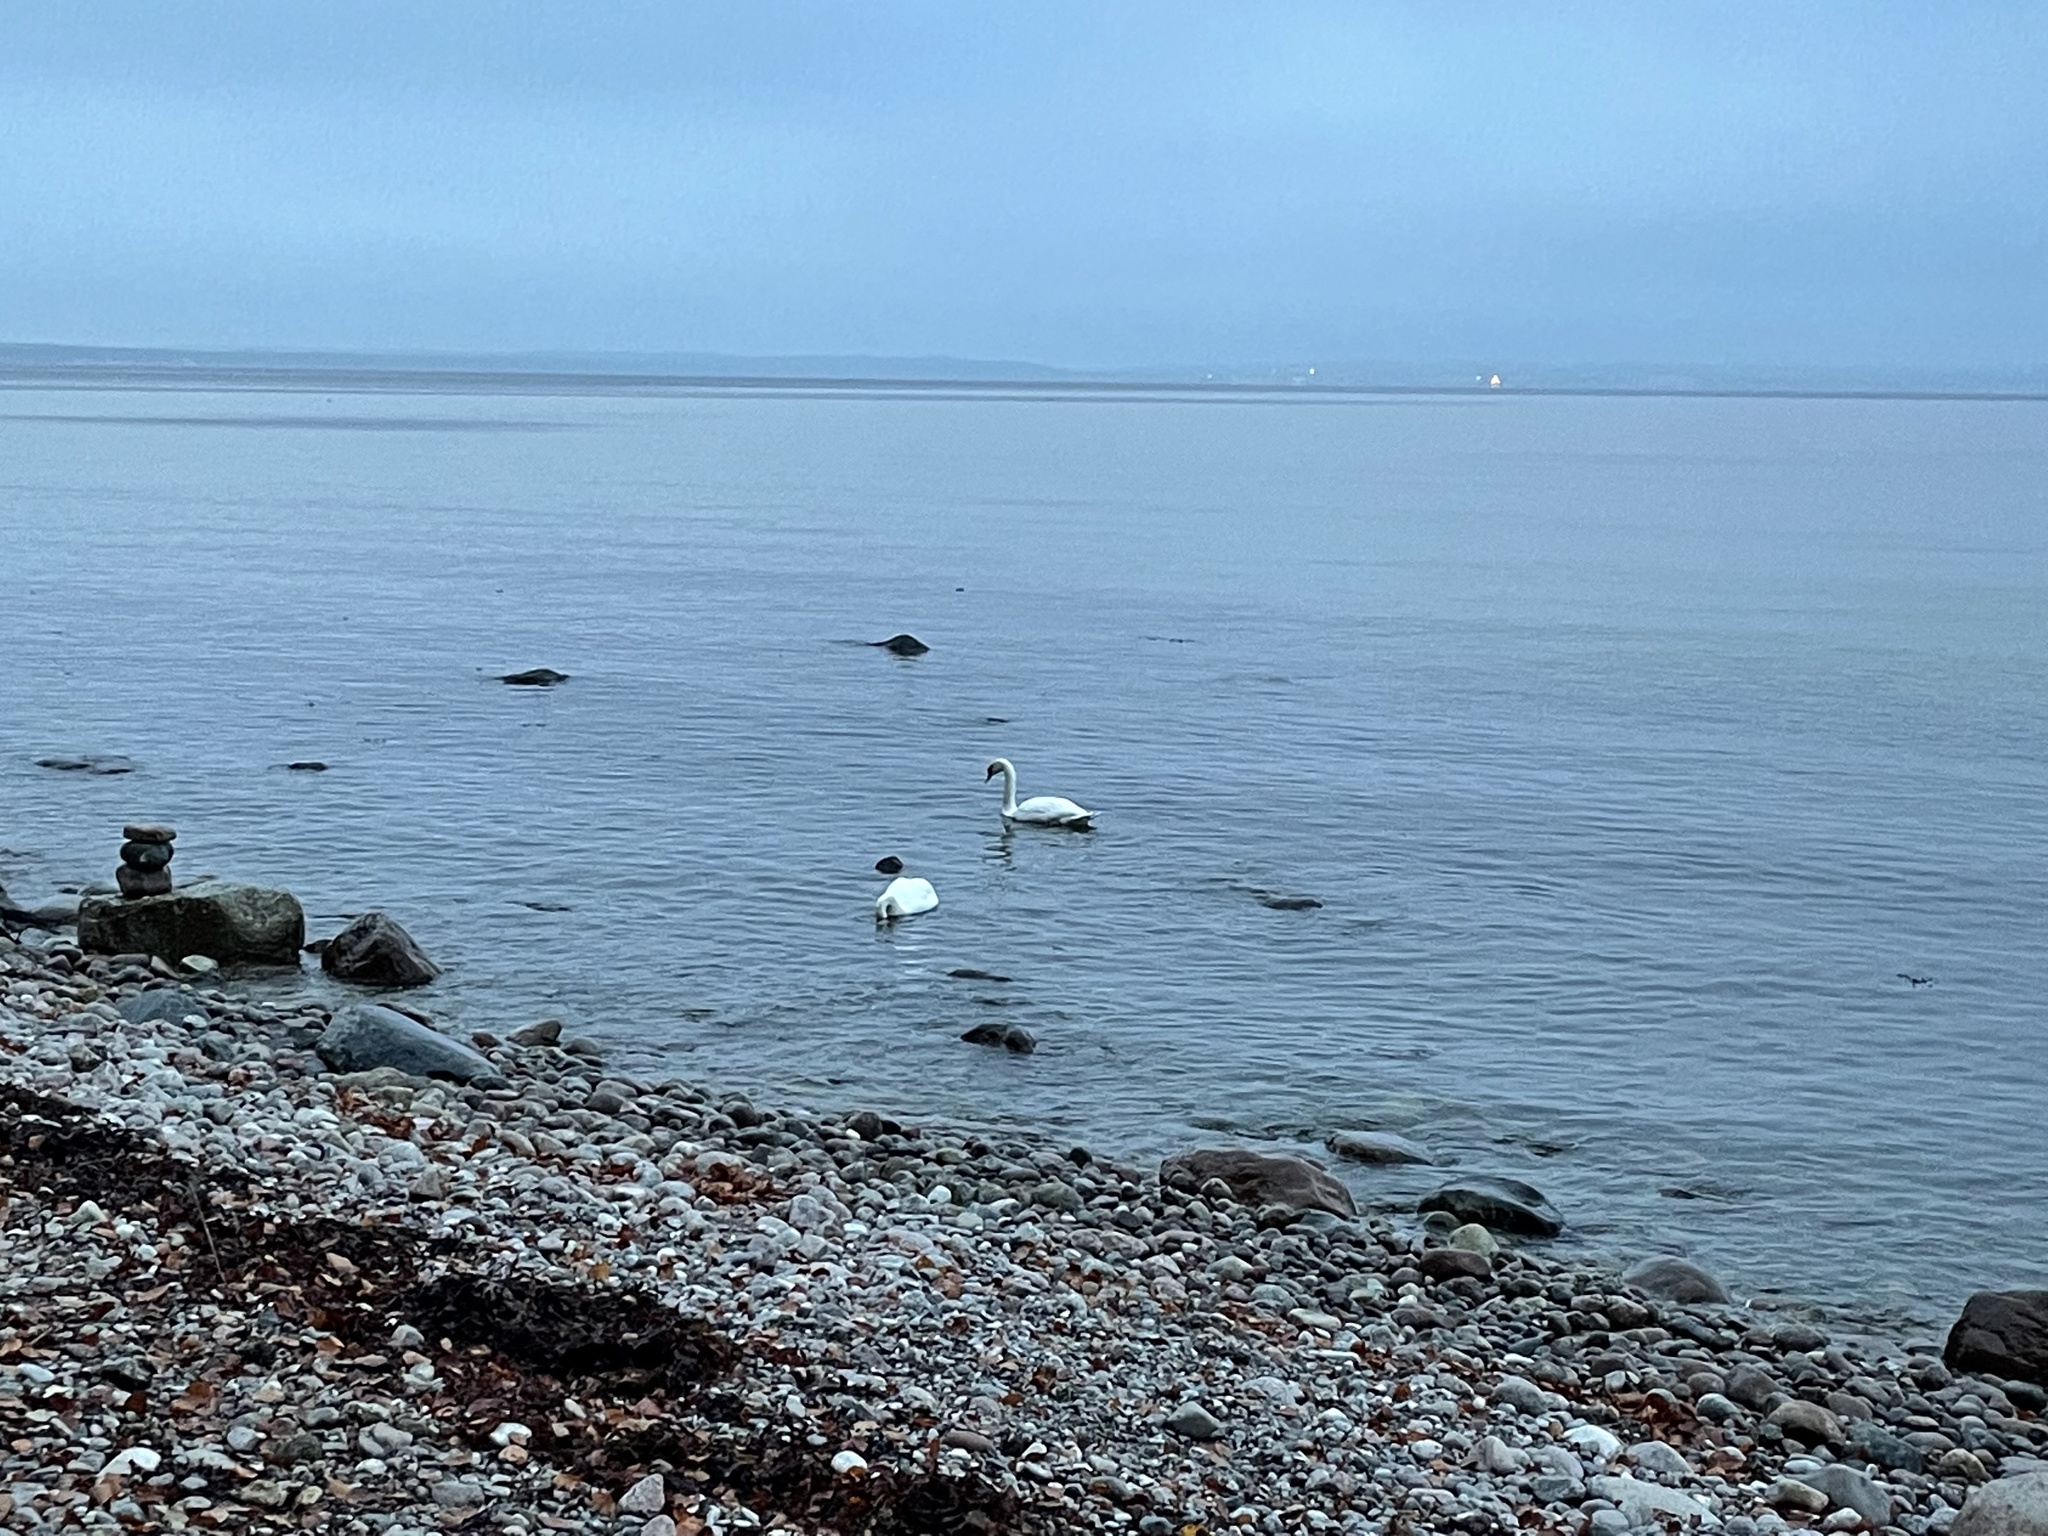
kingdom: Animalia
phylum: Chordata
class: Aves
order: Anseriformes
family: Anatidae
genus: Cygnus
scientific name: Cygnus olor
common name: Mute swan
